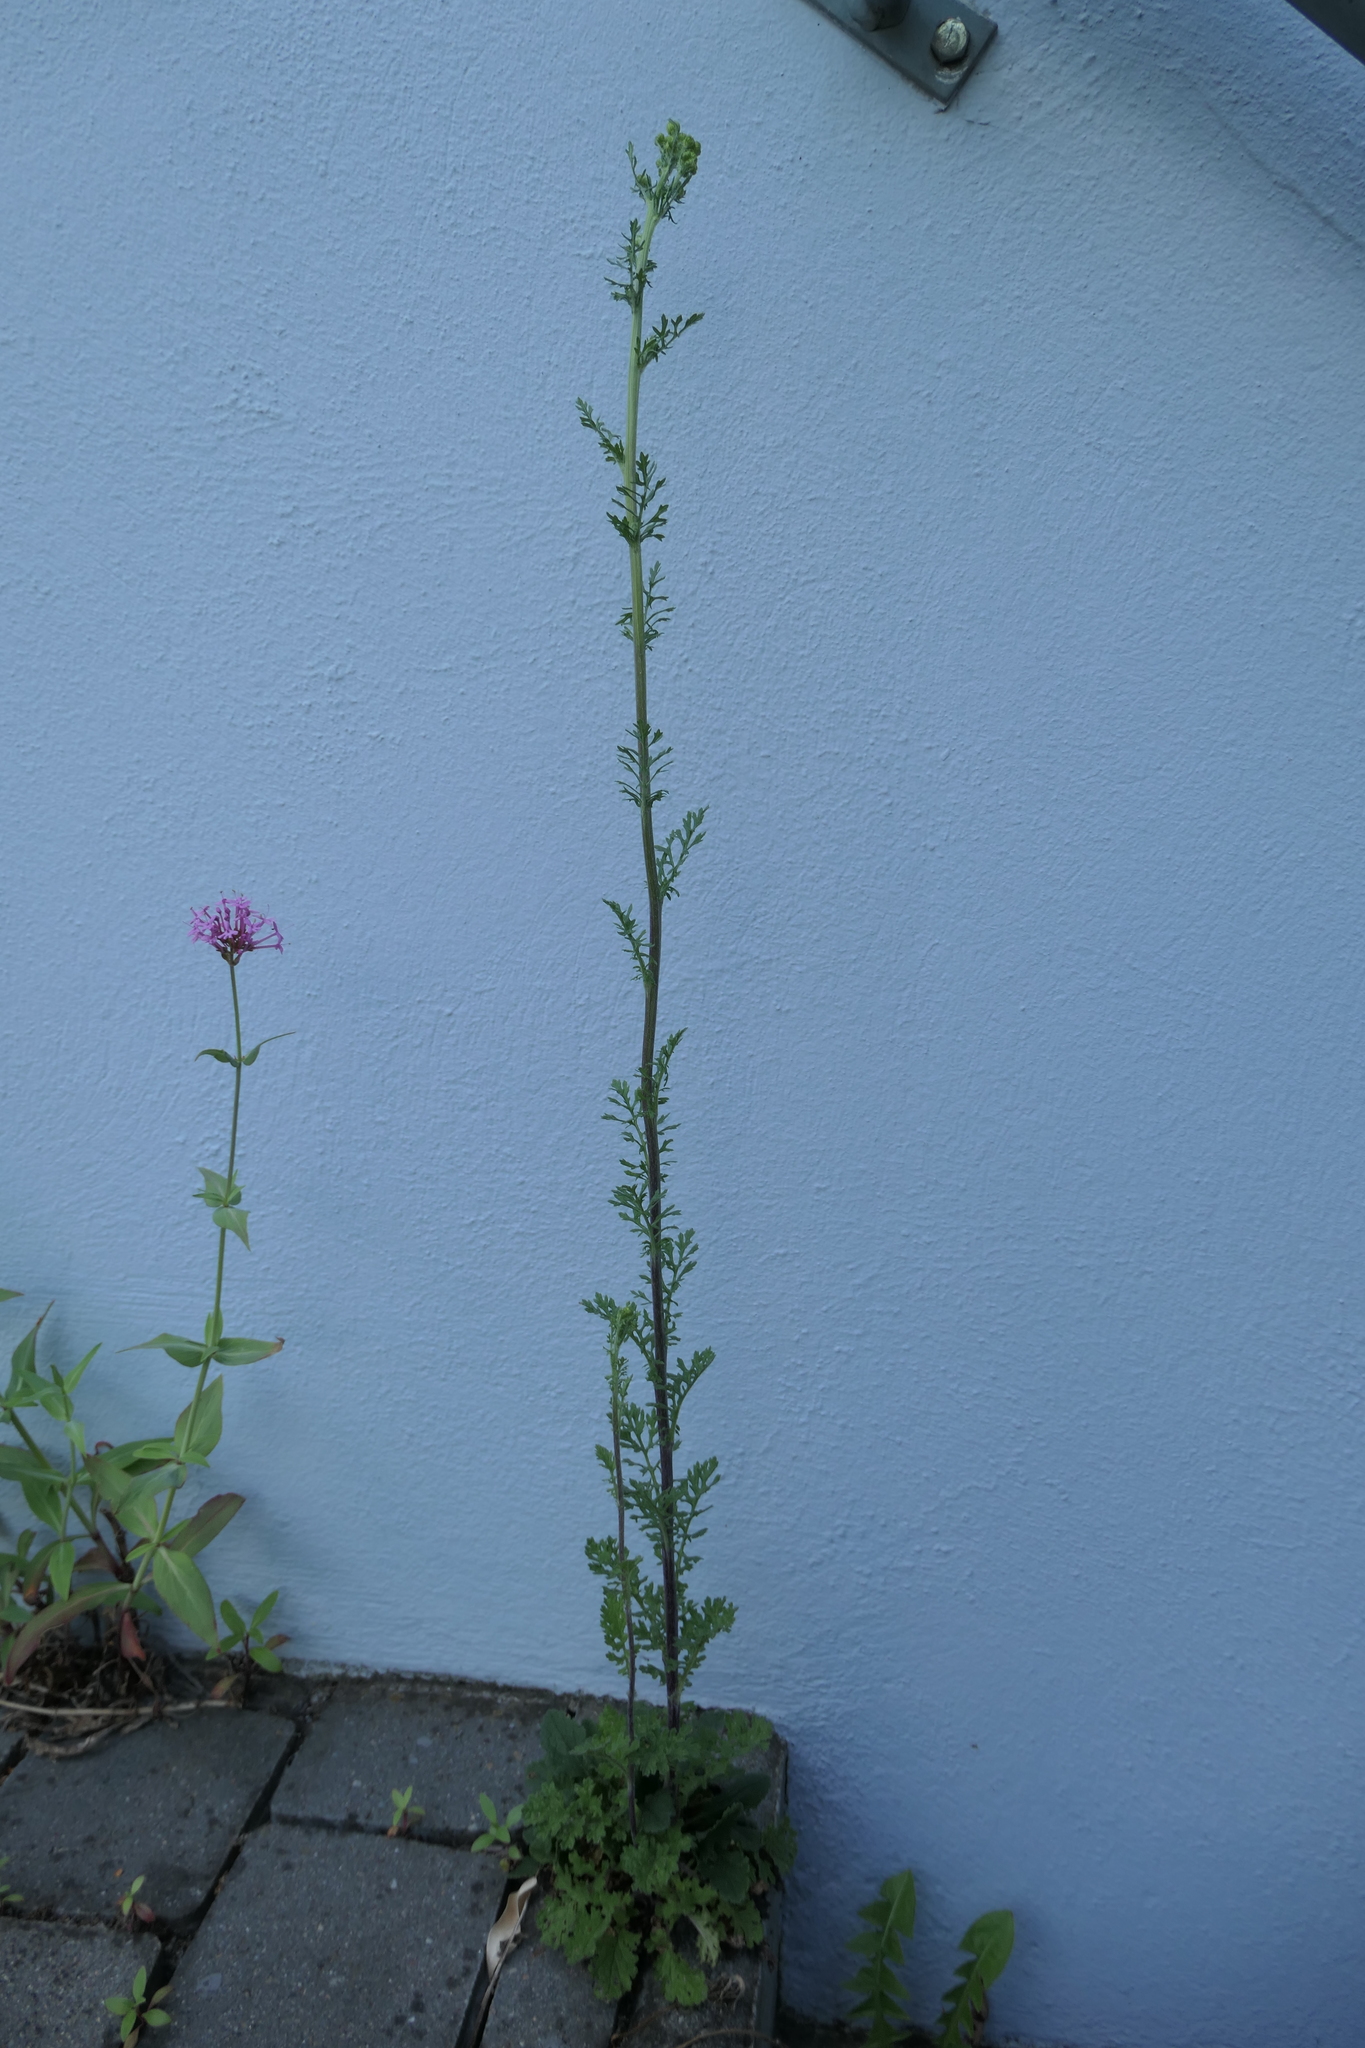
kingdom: Plantae
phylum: Tracheophyta
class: Magnoliopsida
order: Asterales
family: Asteraceae
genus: Jacobaea
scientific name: Jacobaea vulgaris
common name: Stinking willie
